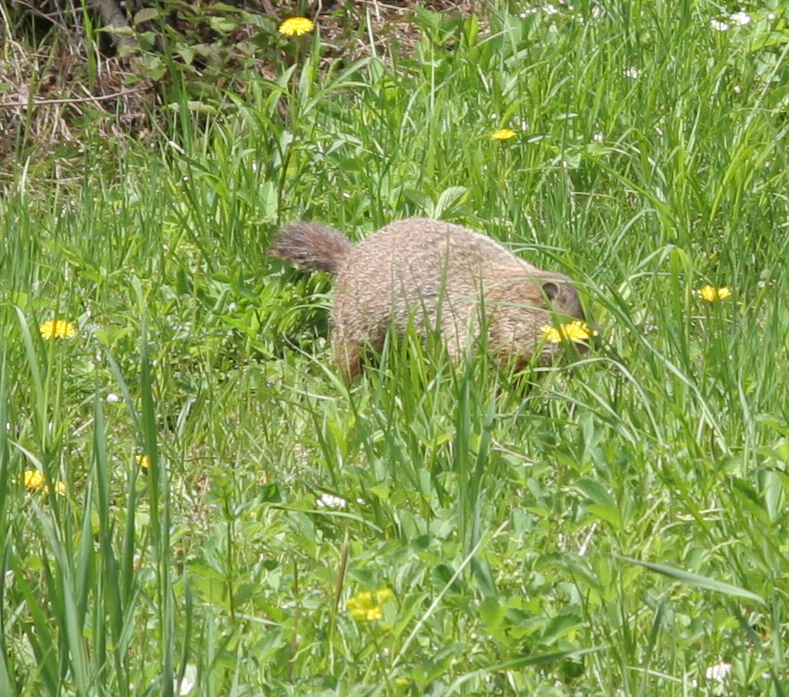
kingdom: Animalia
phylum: Chordata
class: Mammalia
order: Rodentia
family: Sciuridae
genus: Marmota
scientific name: Marmota monax
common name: Groundhog
